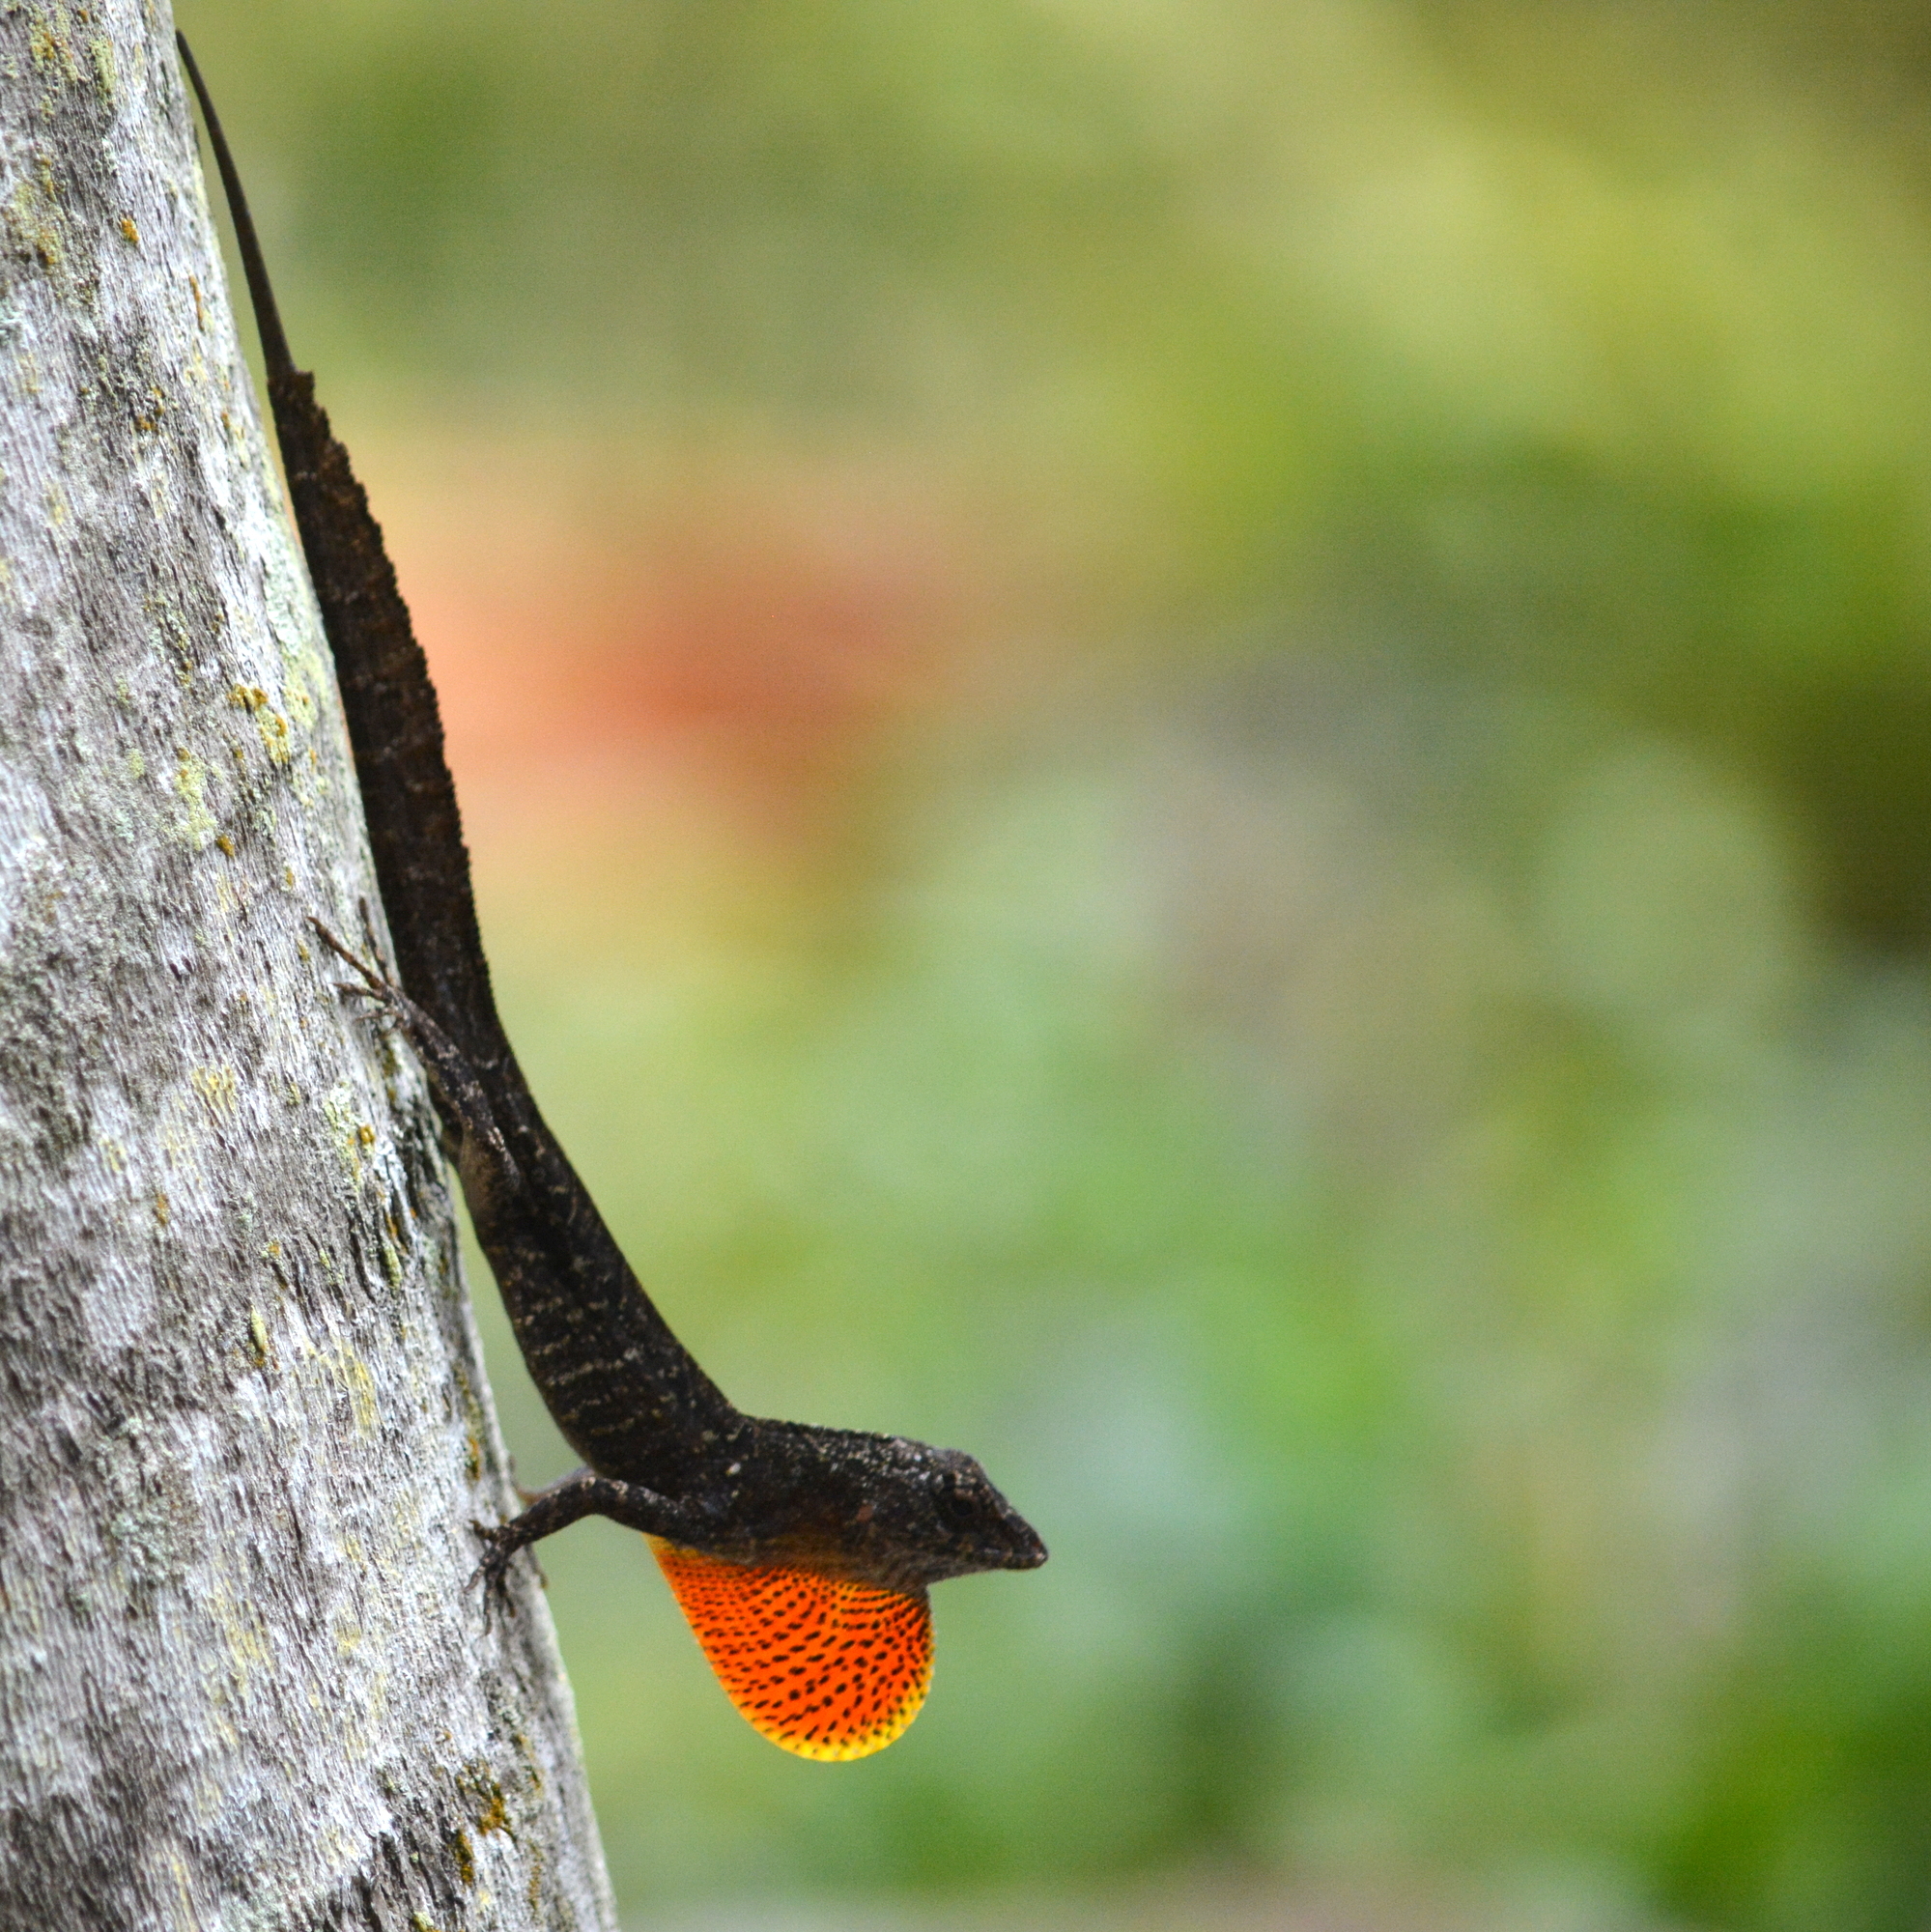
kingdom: Animalia
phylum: Chordata
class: Squamata
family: Dactyloidae
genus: Anolis
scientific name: Anolis sagrei
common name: Brown anole
